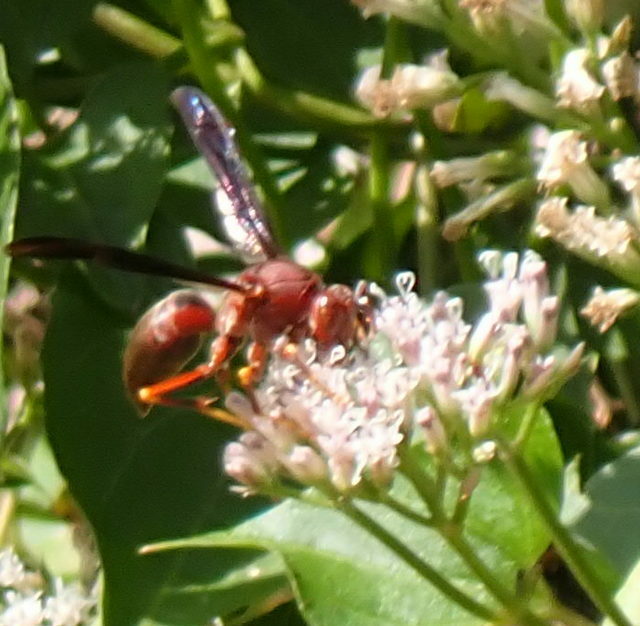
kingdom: Animalia
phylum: Arthropoda
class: Insecta
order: Hymenoptera
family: Eumenidae
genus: Polistes
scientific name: Polistes metricus
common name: Metric paper wasp
